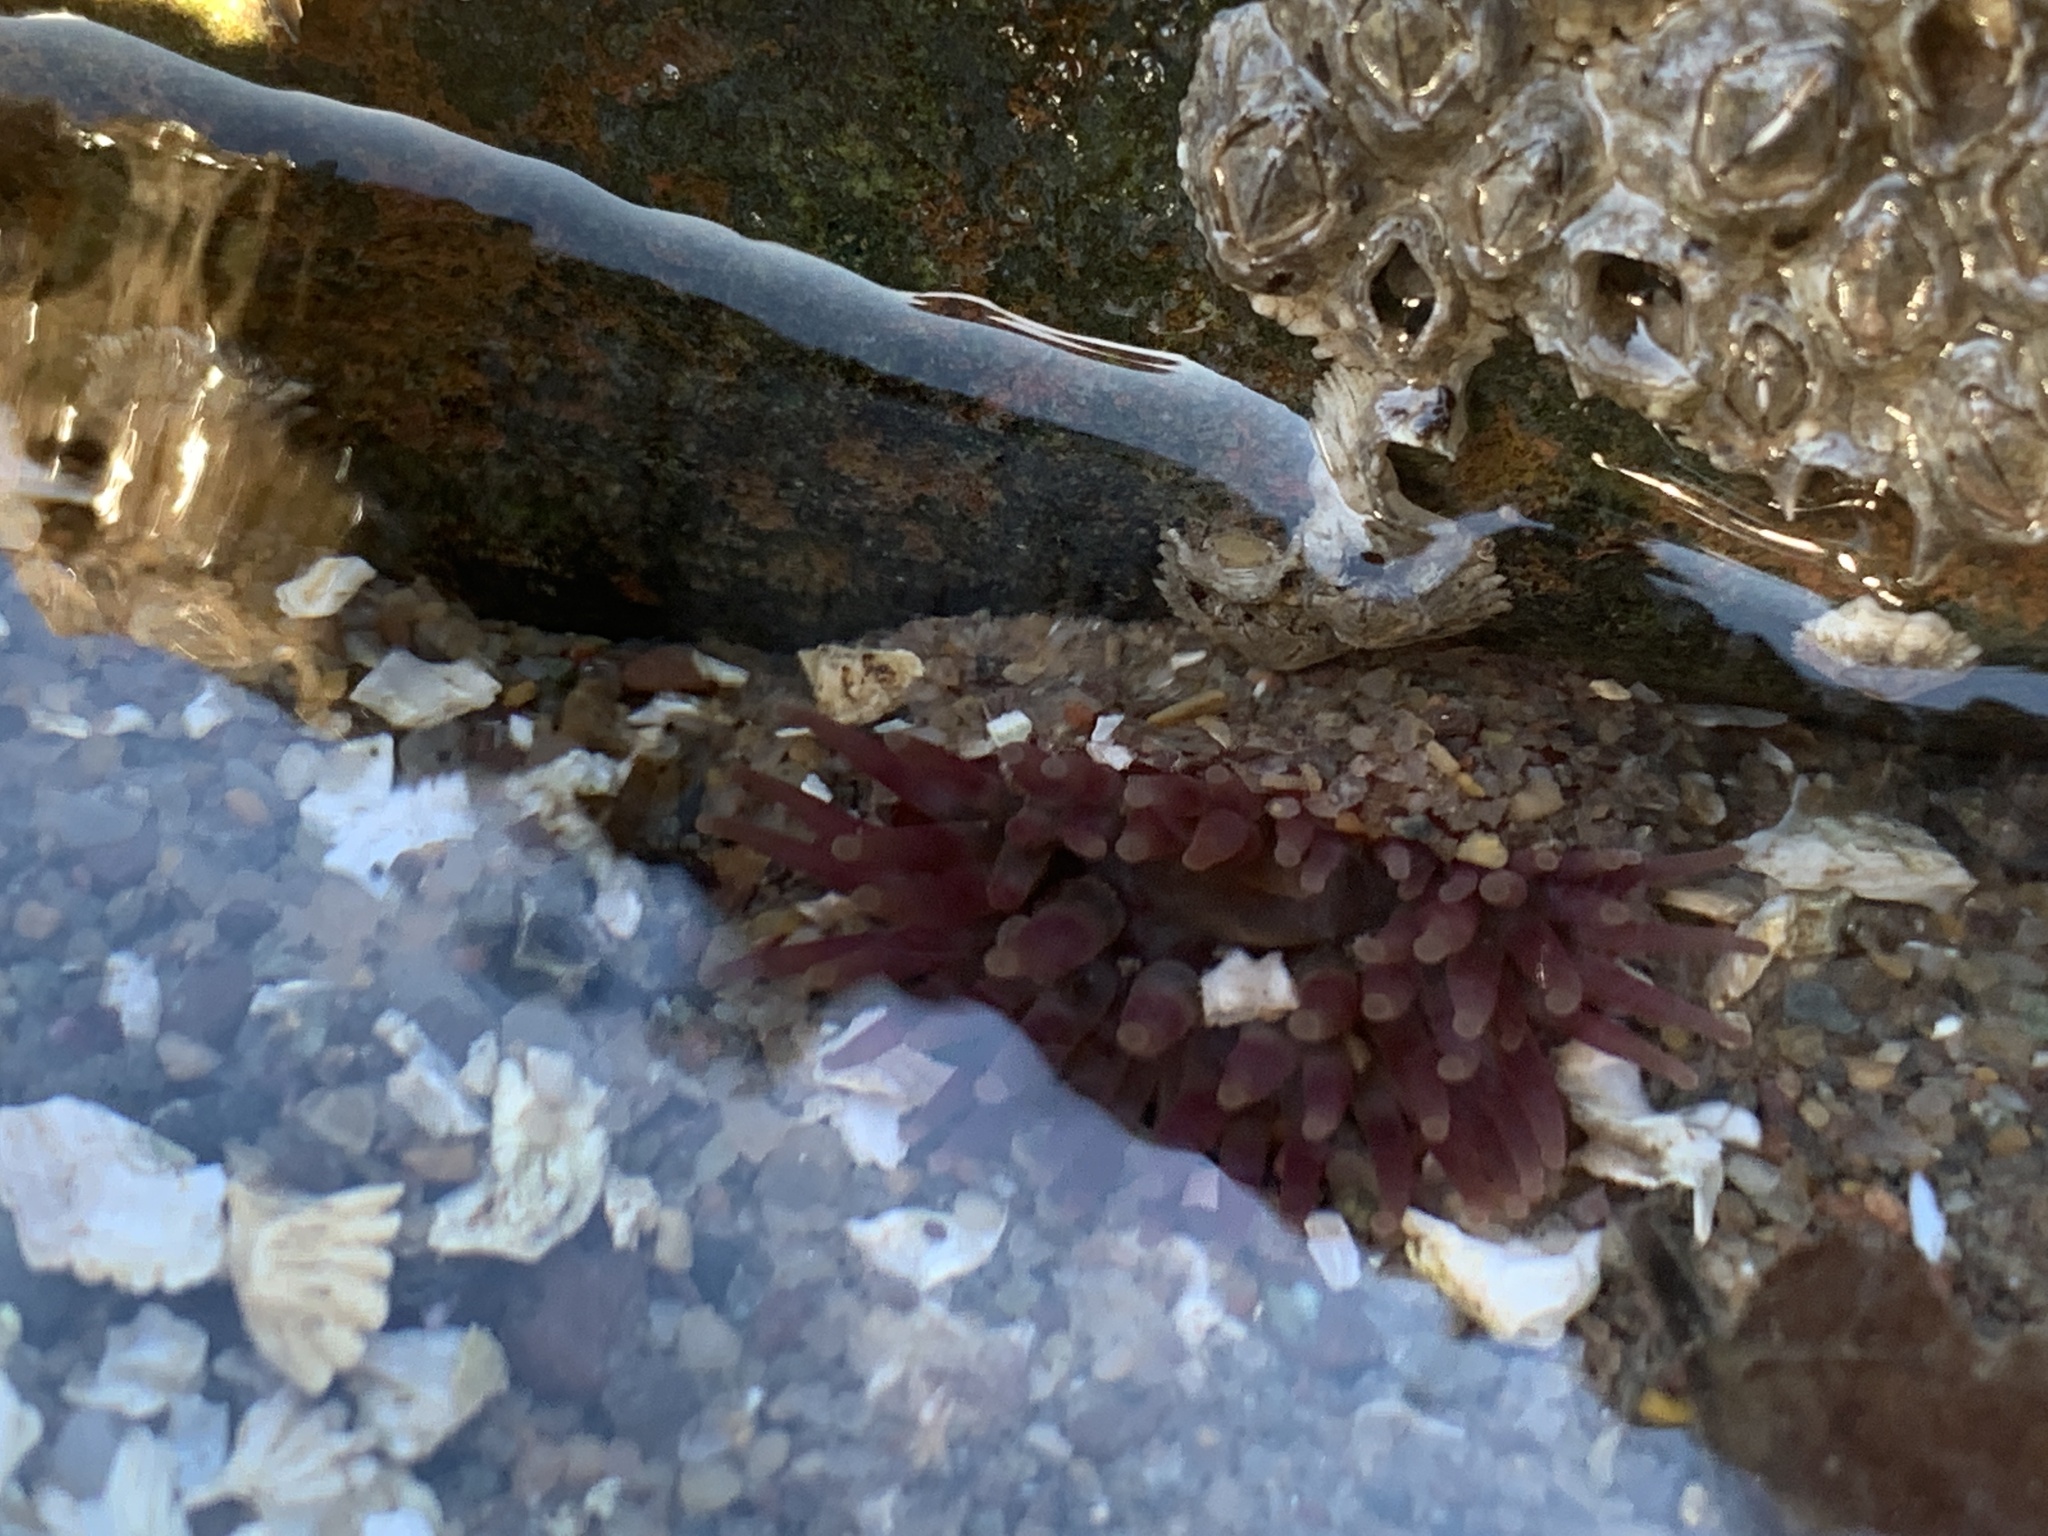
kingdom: Animalia
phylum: Cnidaria
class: Anthozoa
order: Actiniaria
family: Actiniidae
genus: Urticina
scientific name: Urticina crassicornis
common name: Mottled anemone
